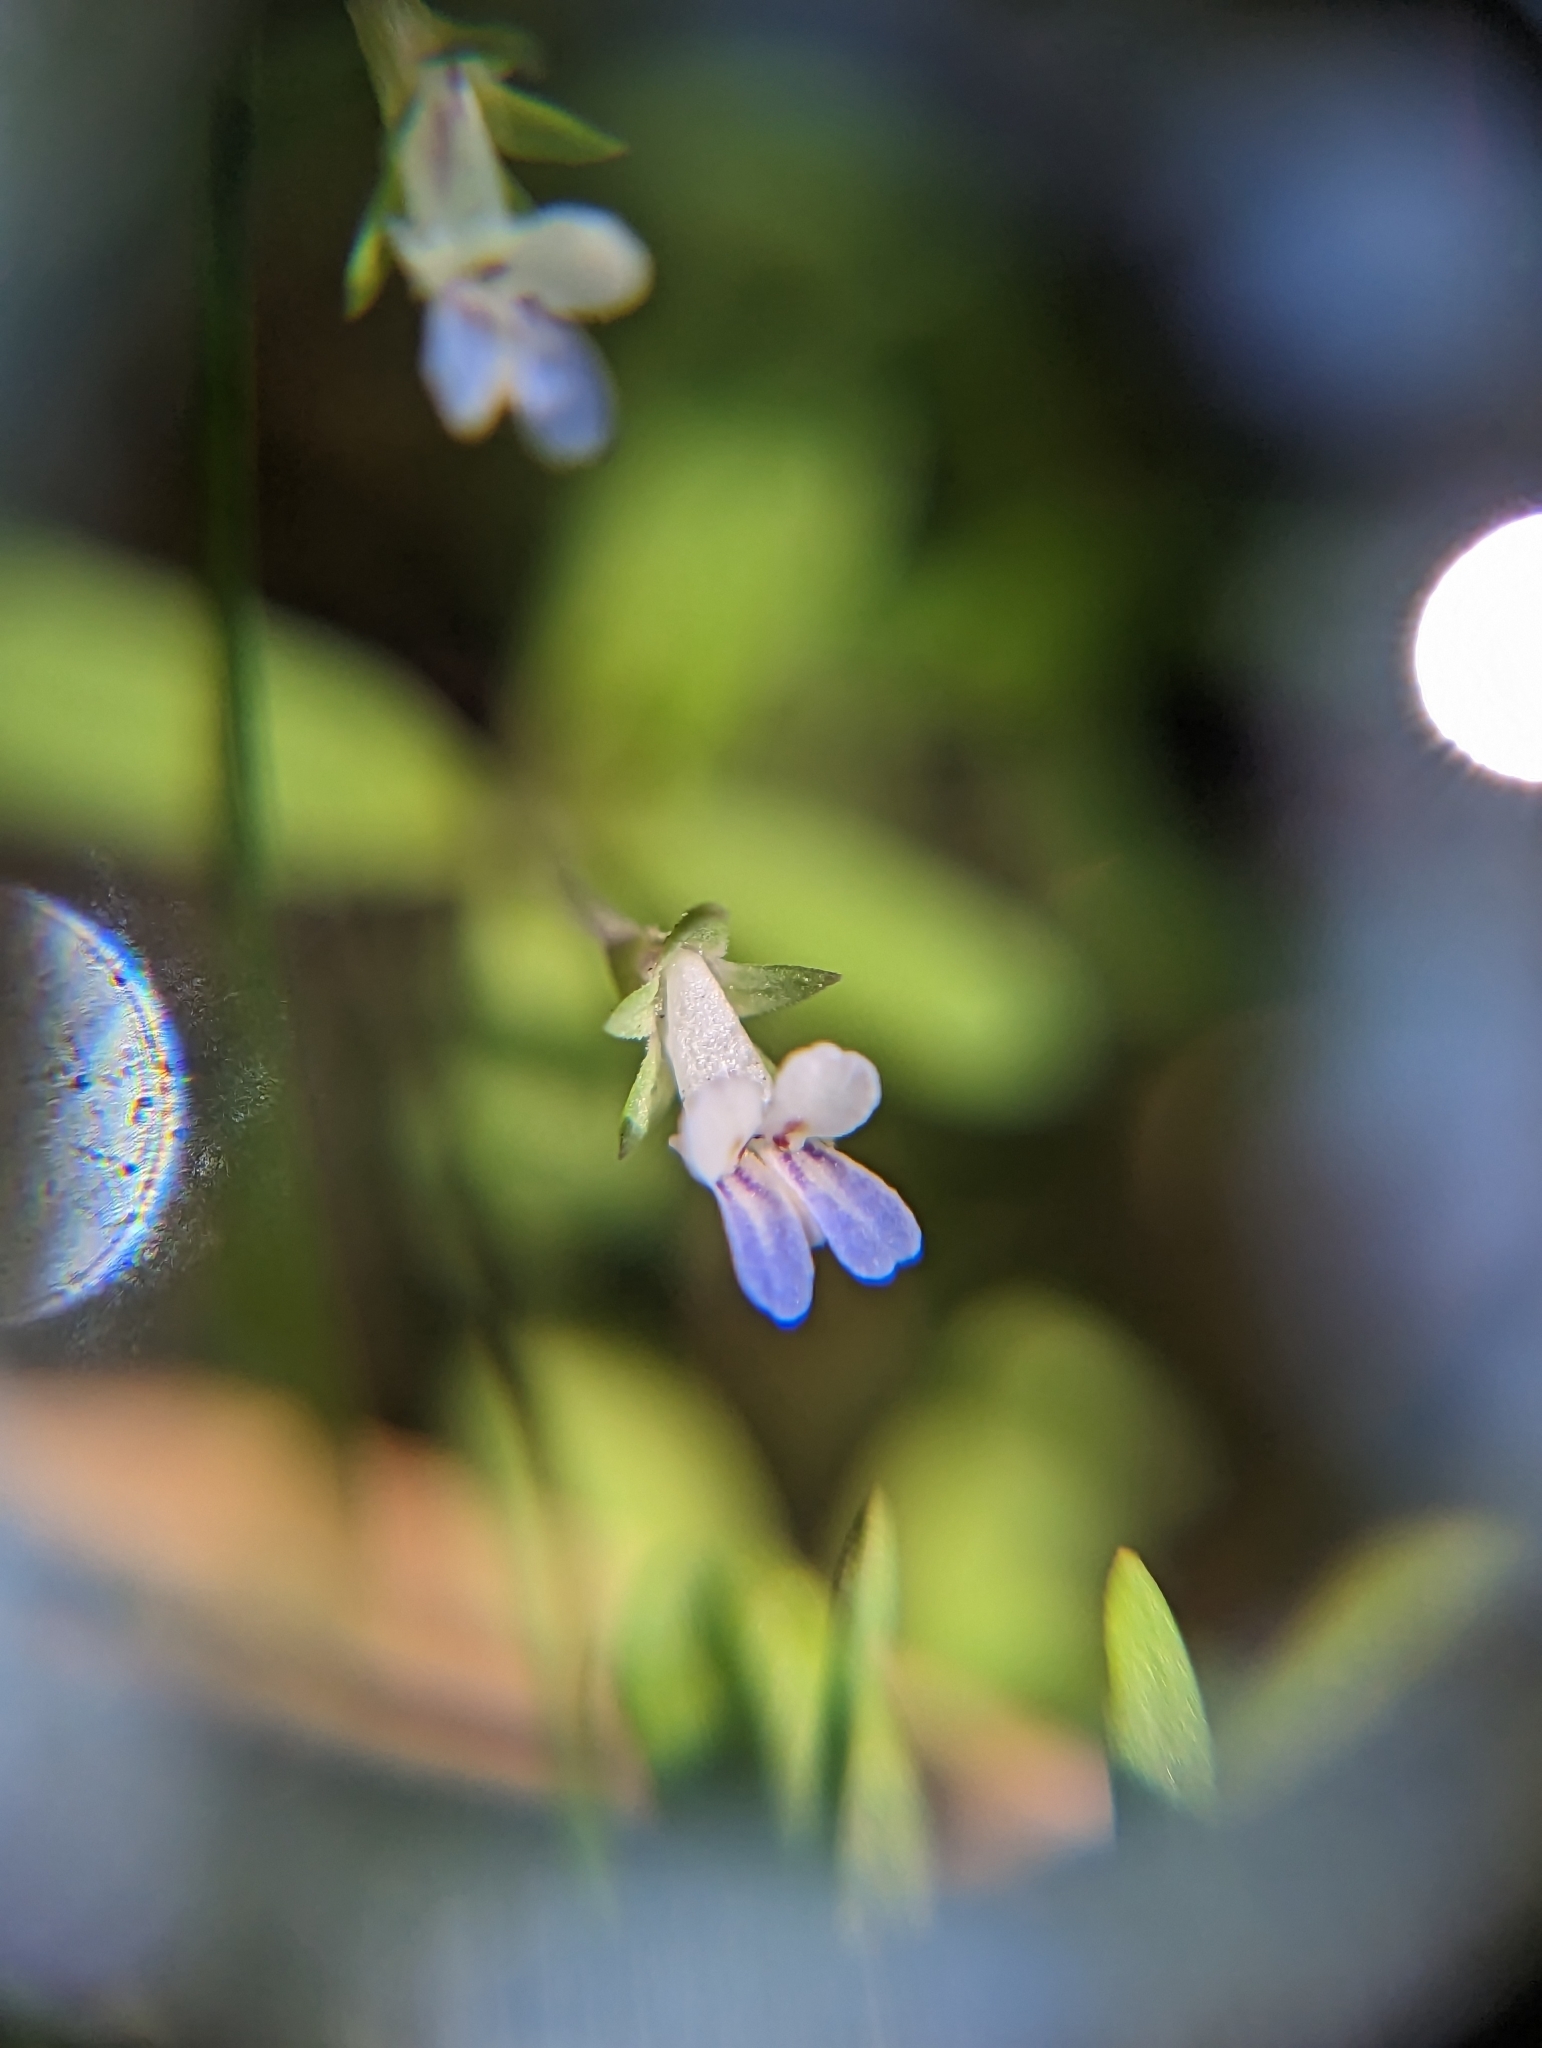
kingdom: Plantae
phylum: Tracheophyta
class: Magnoliopsida
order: Lamiales
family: Plantaginaceae
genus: Collinsia
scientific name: Collinsia parviflora
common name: Blue-lips
